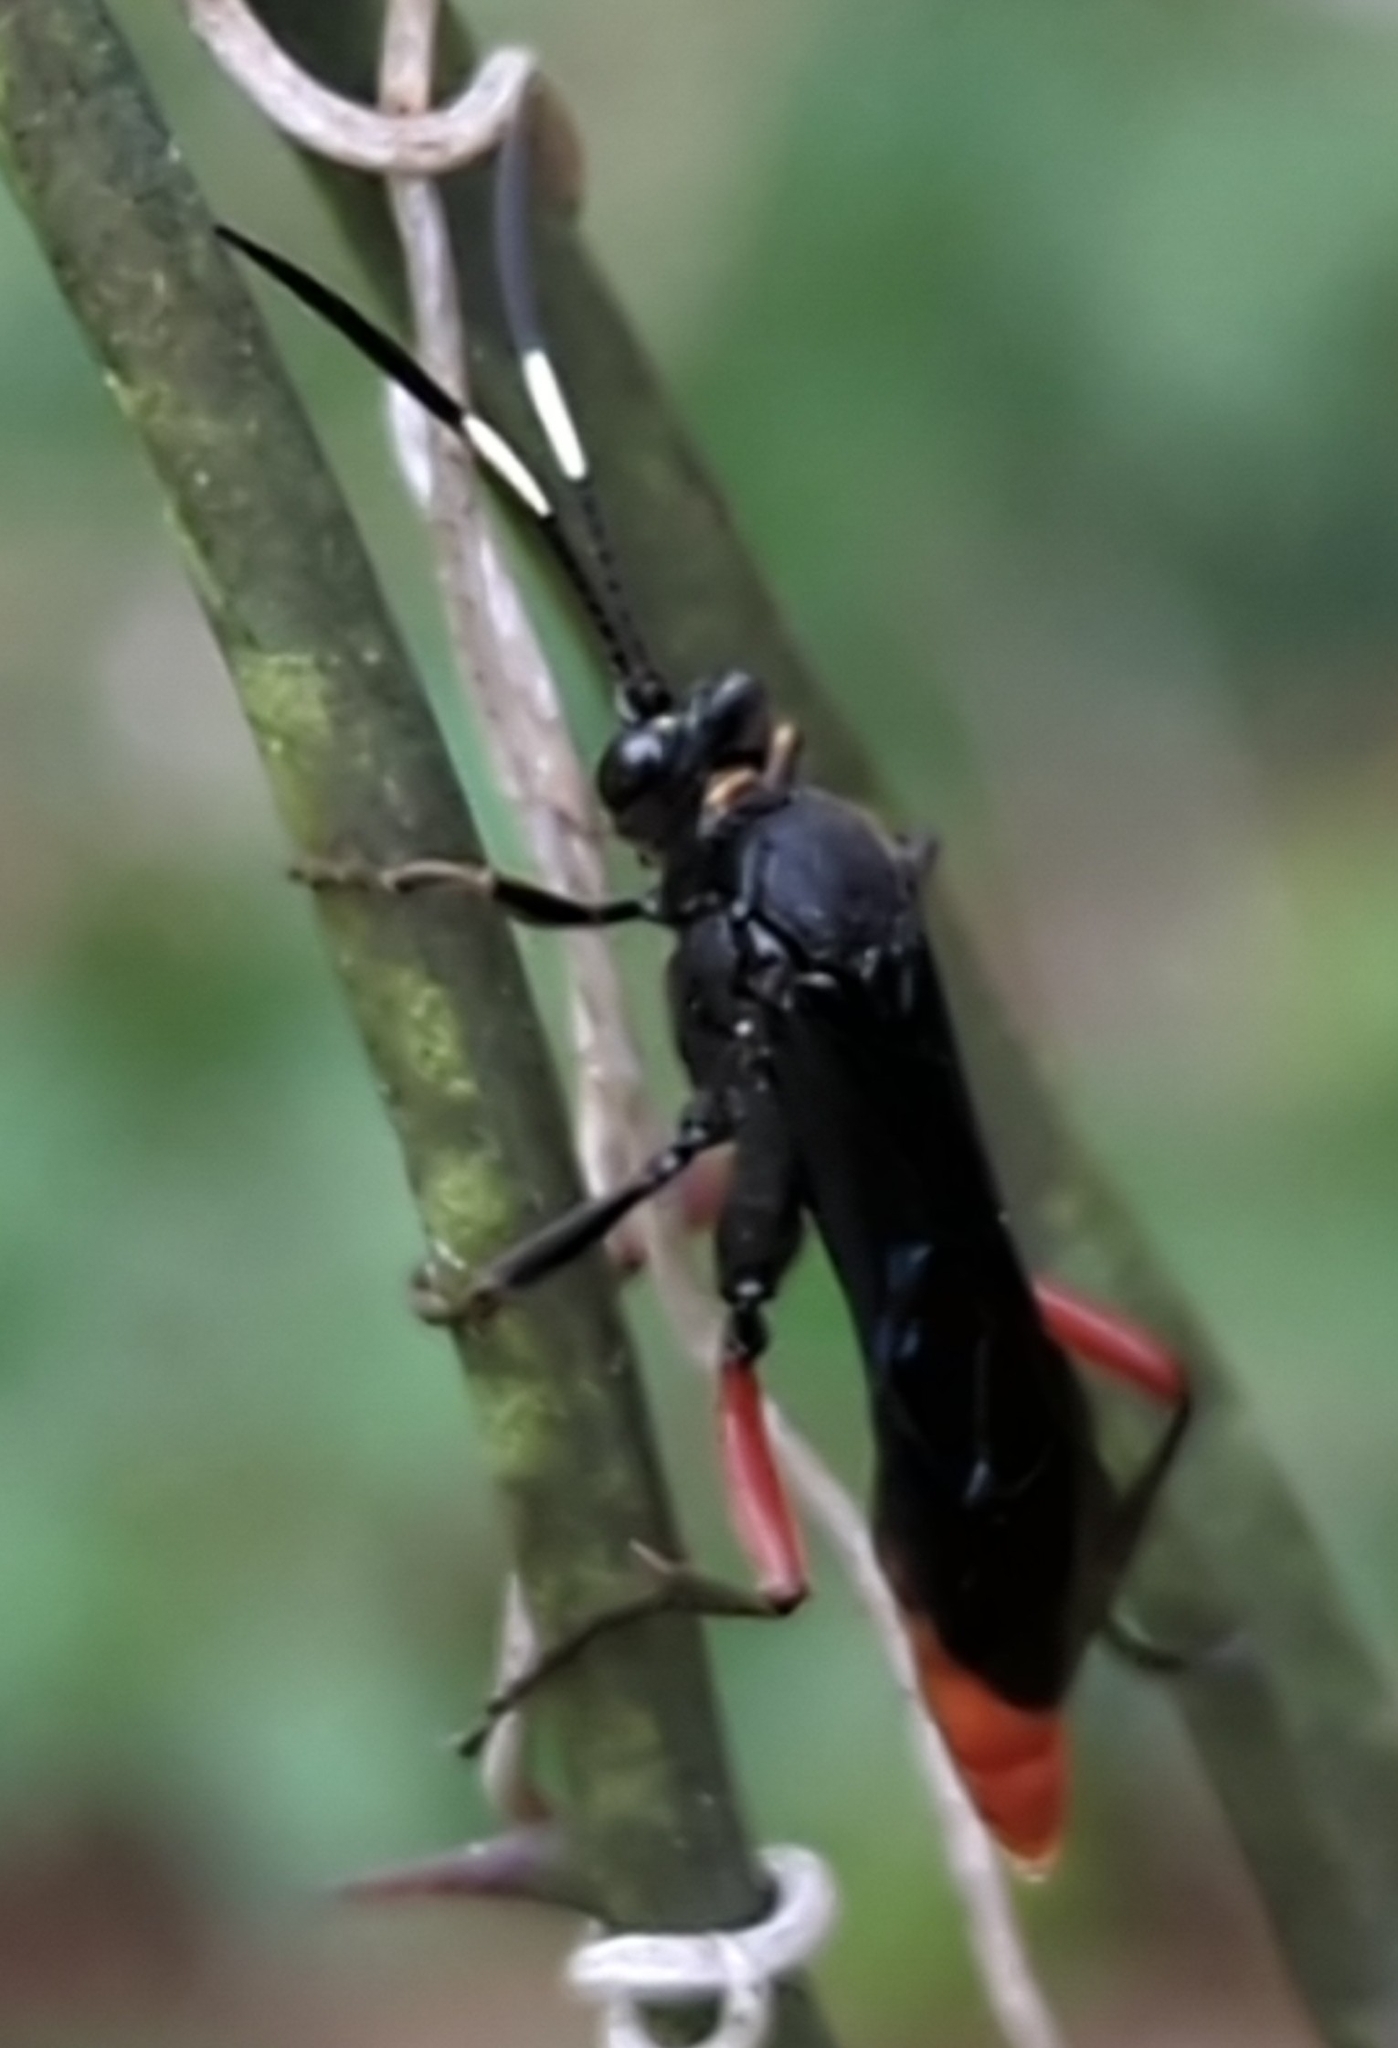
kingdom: Animalia
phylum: Arthropoda
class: Insecta
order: Hymenoptera
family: Ichneumonidae
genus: Limonethe
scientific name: Limonethe maurator
